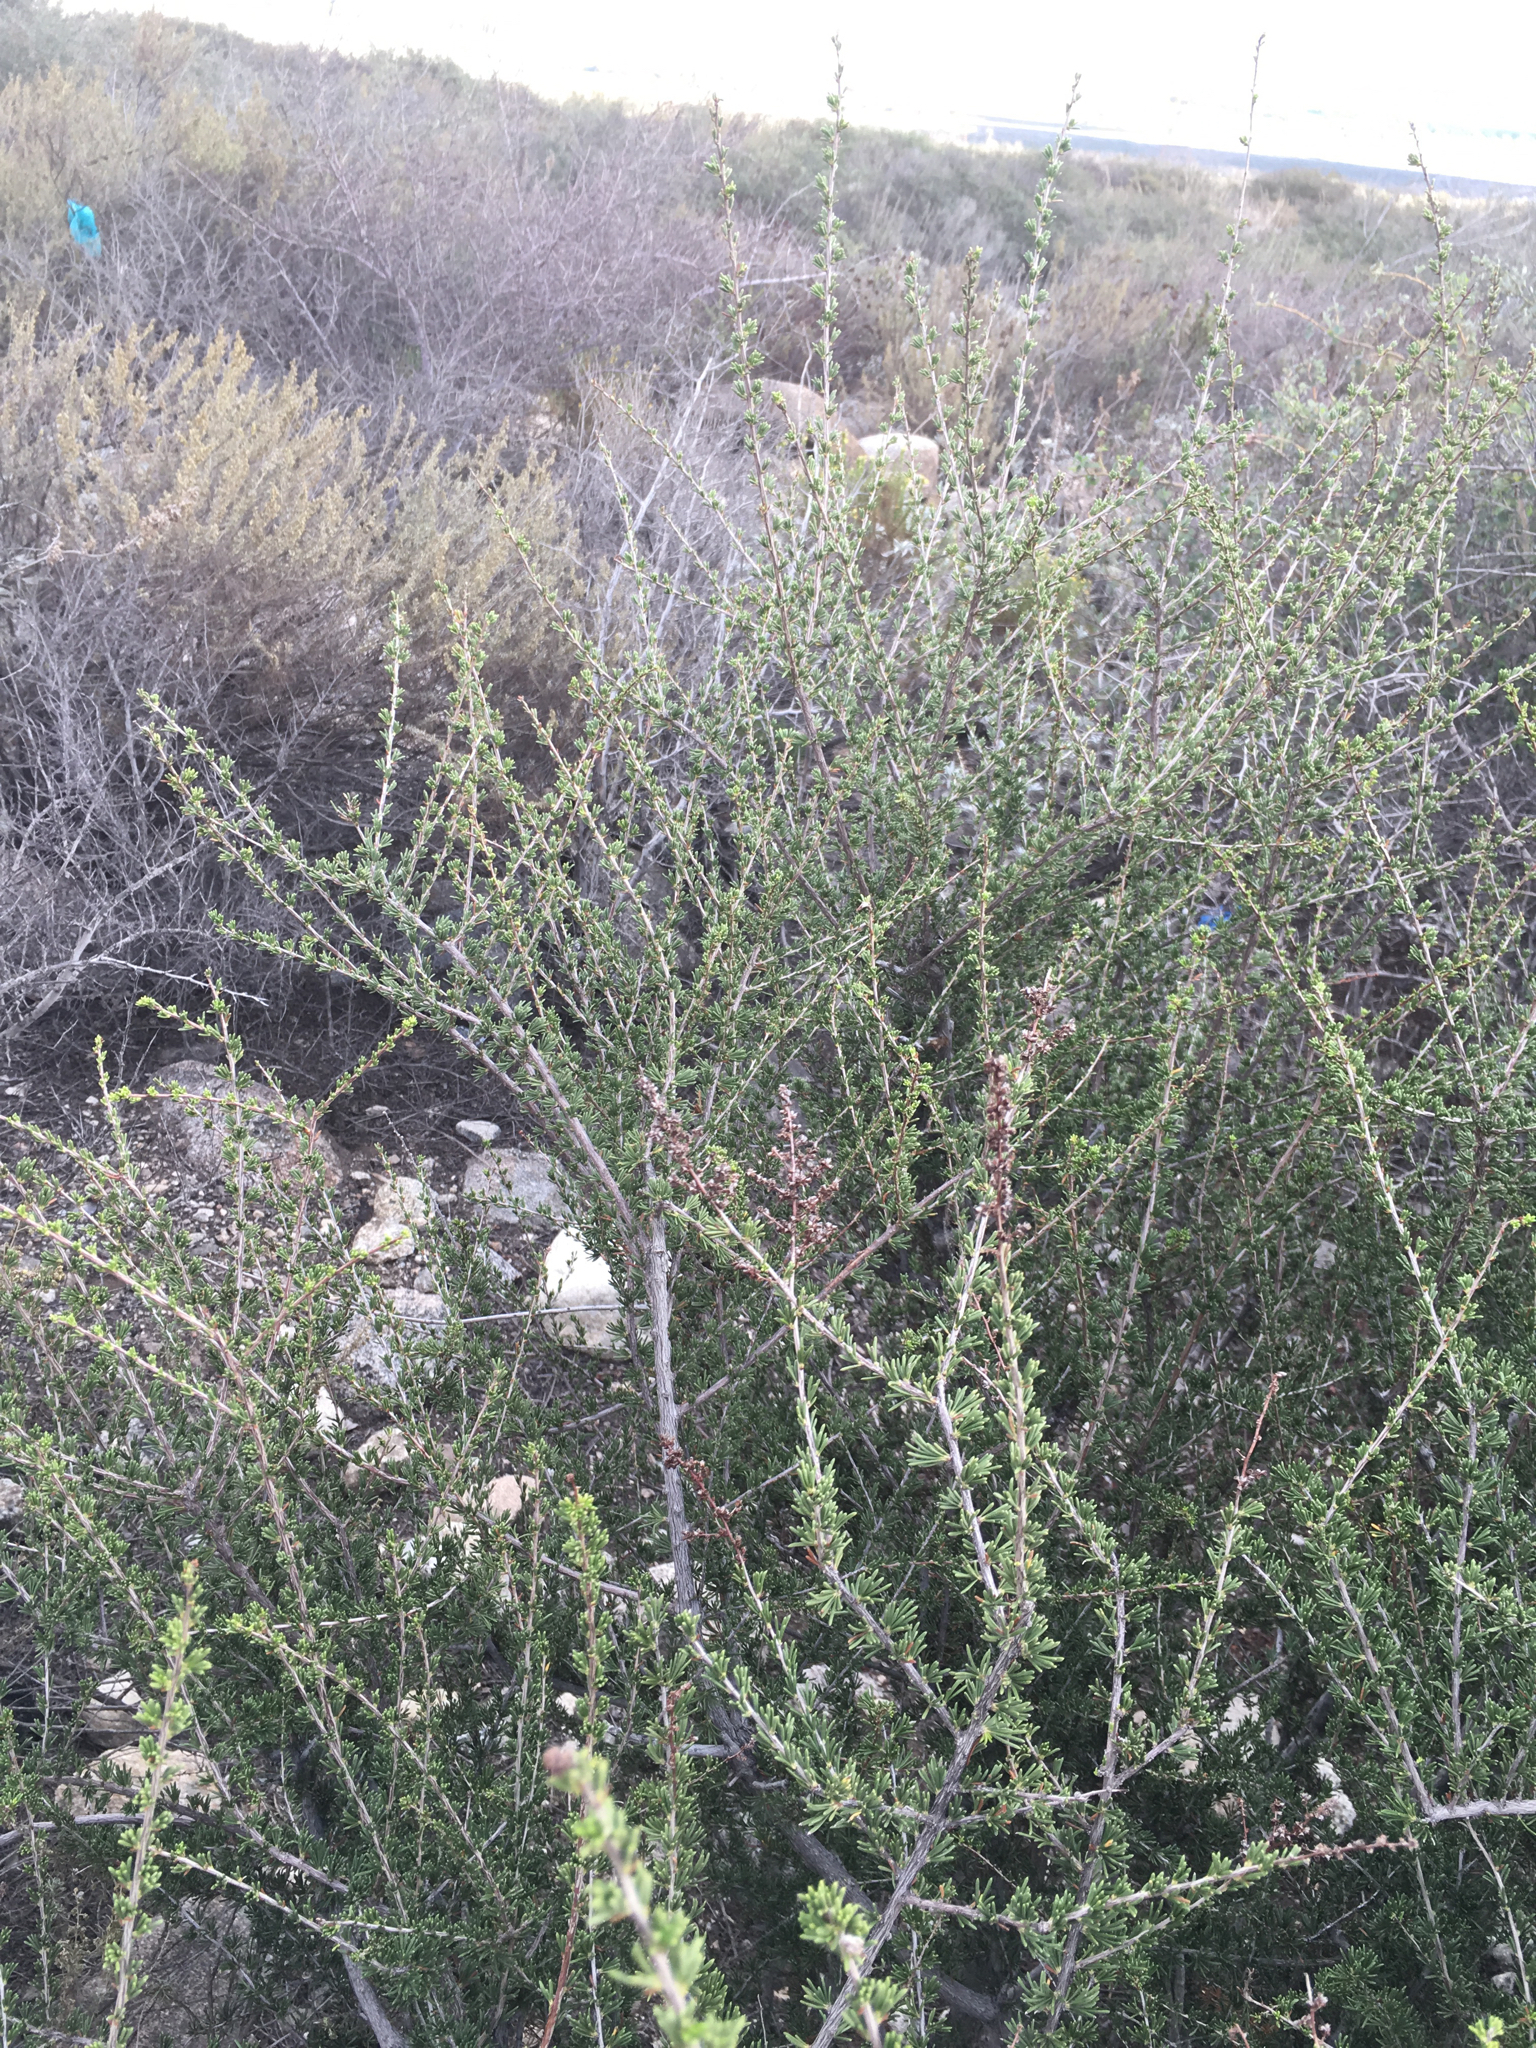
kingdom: Plantae
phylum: Tracheophyta
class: Magnoliopsida
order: Rosales
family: Rosaceae
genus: Adenostoma
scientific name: Adenostoma fasciculatum
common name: Chamise
